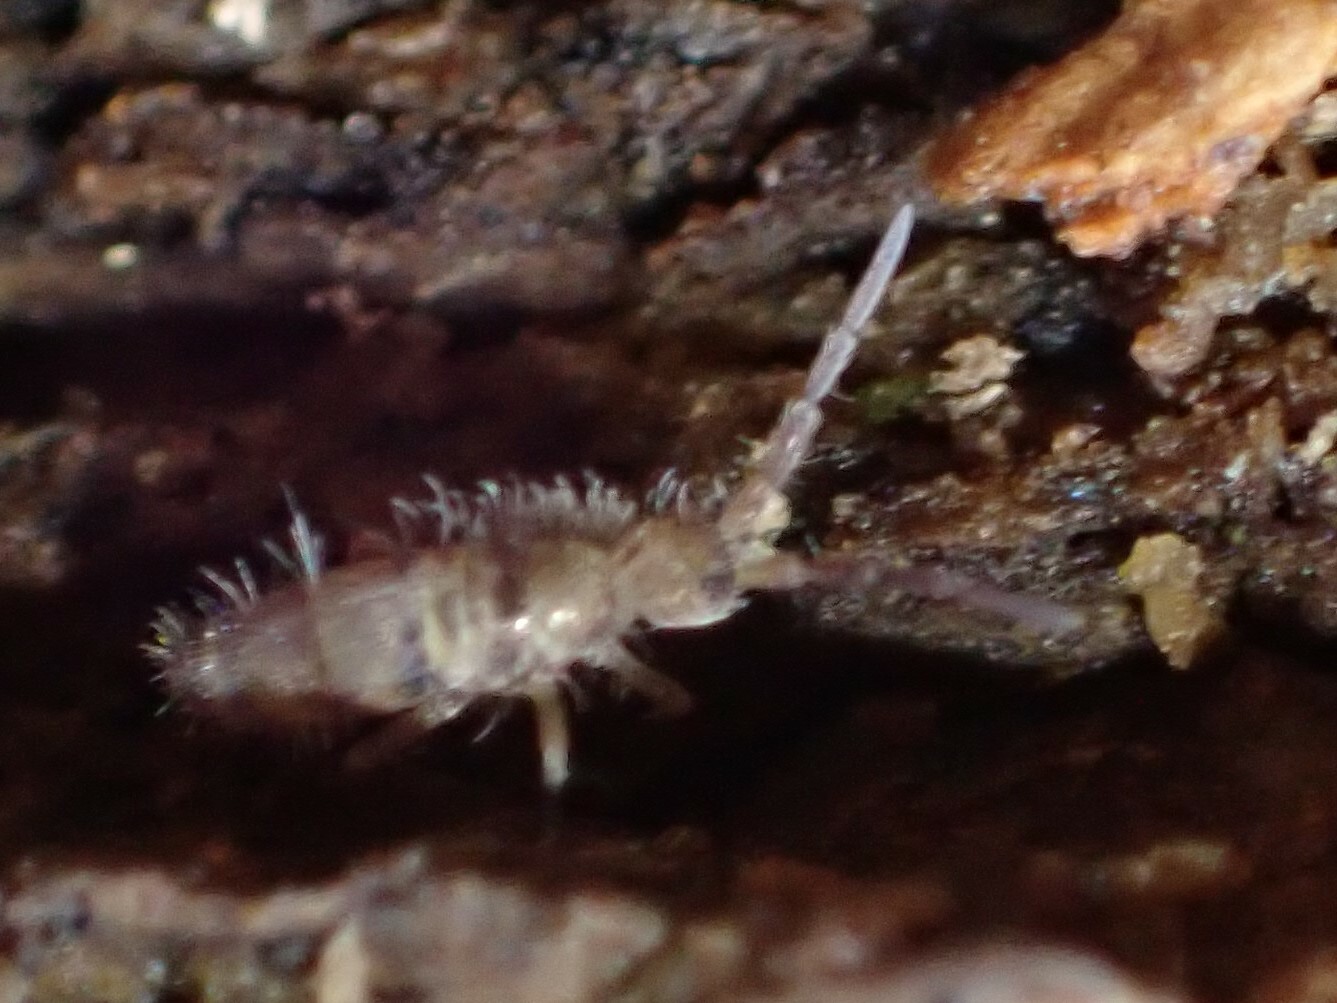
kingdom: Animalia
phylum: Arthropoda
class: Collembola
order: Entomobryomorpha
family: Entomobryidae
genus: Homidia
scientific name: Homidia sauteri
